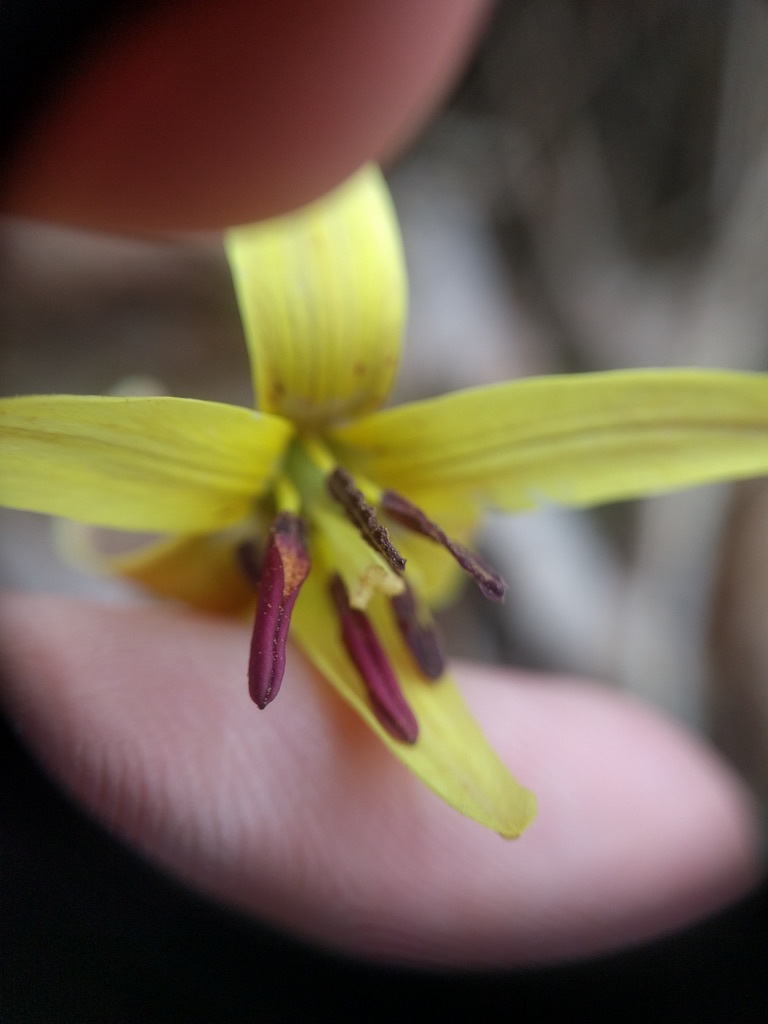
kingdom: Plantae
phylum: Tracheophyta
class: Liliopsida
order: Liliales
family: Liliaceae
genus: Erythronium
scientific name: Erythronium umbilicatum
